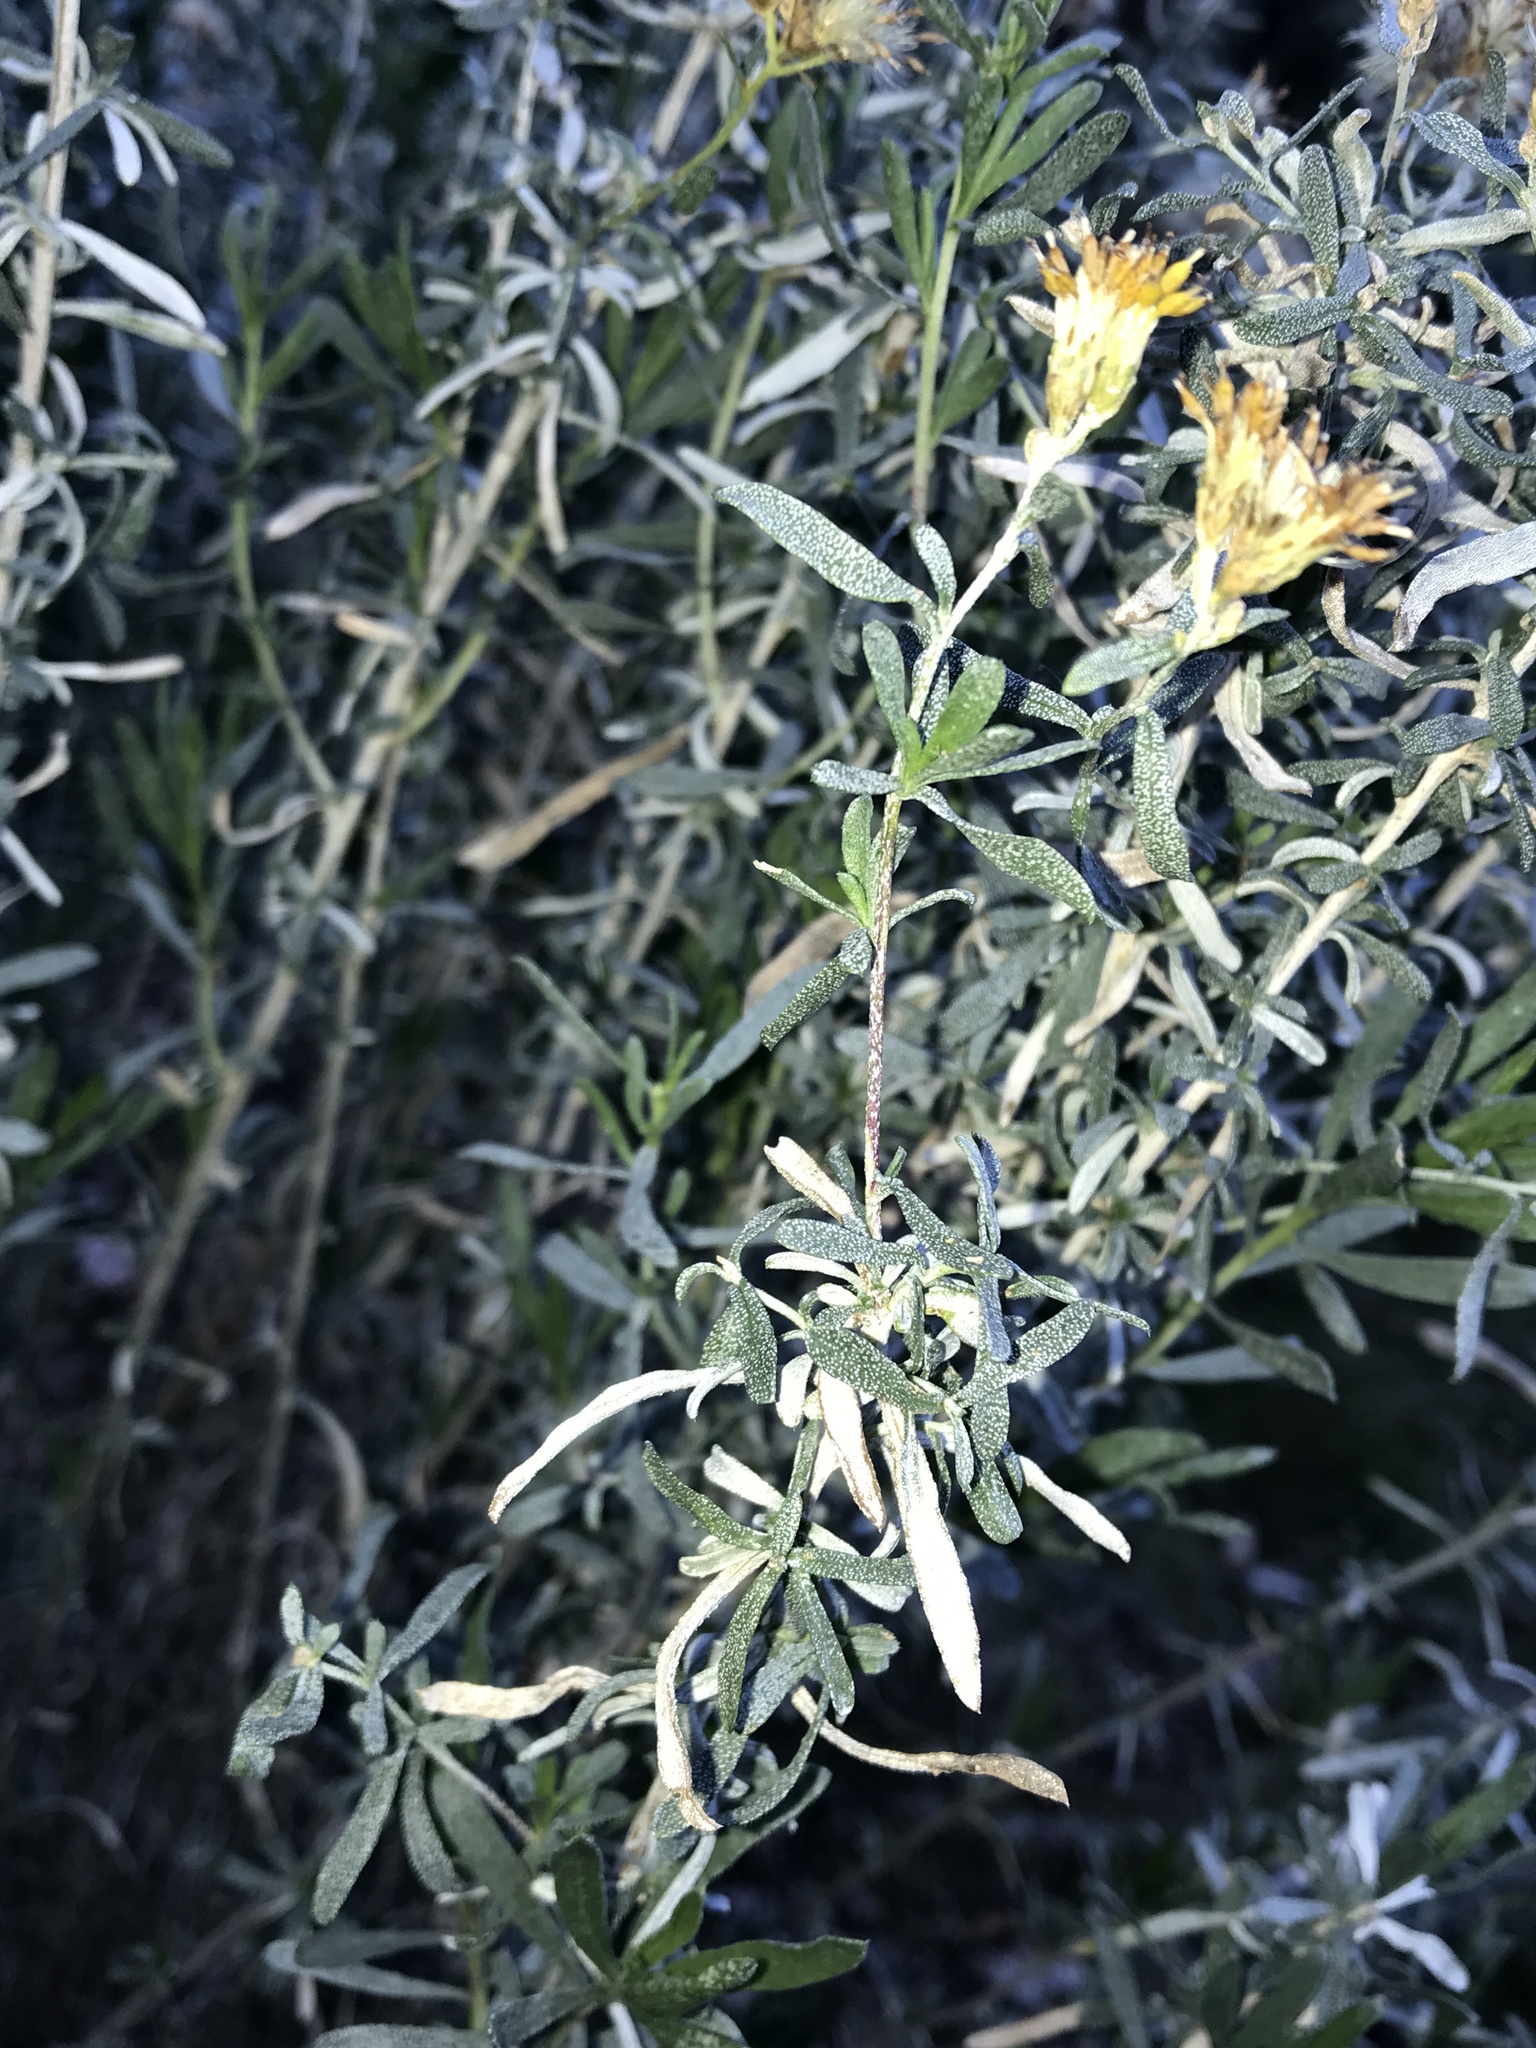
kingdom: Plantae
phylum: Tracheophyta
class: Magnoliopsida
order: Asterales
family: Asteraceae
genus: Isocoma
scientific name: Isocoma acradenia
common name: Alkali jimmyweed
